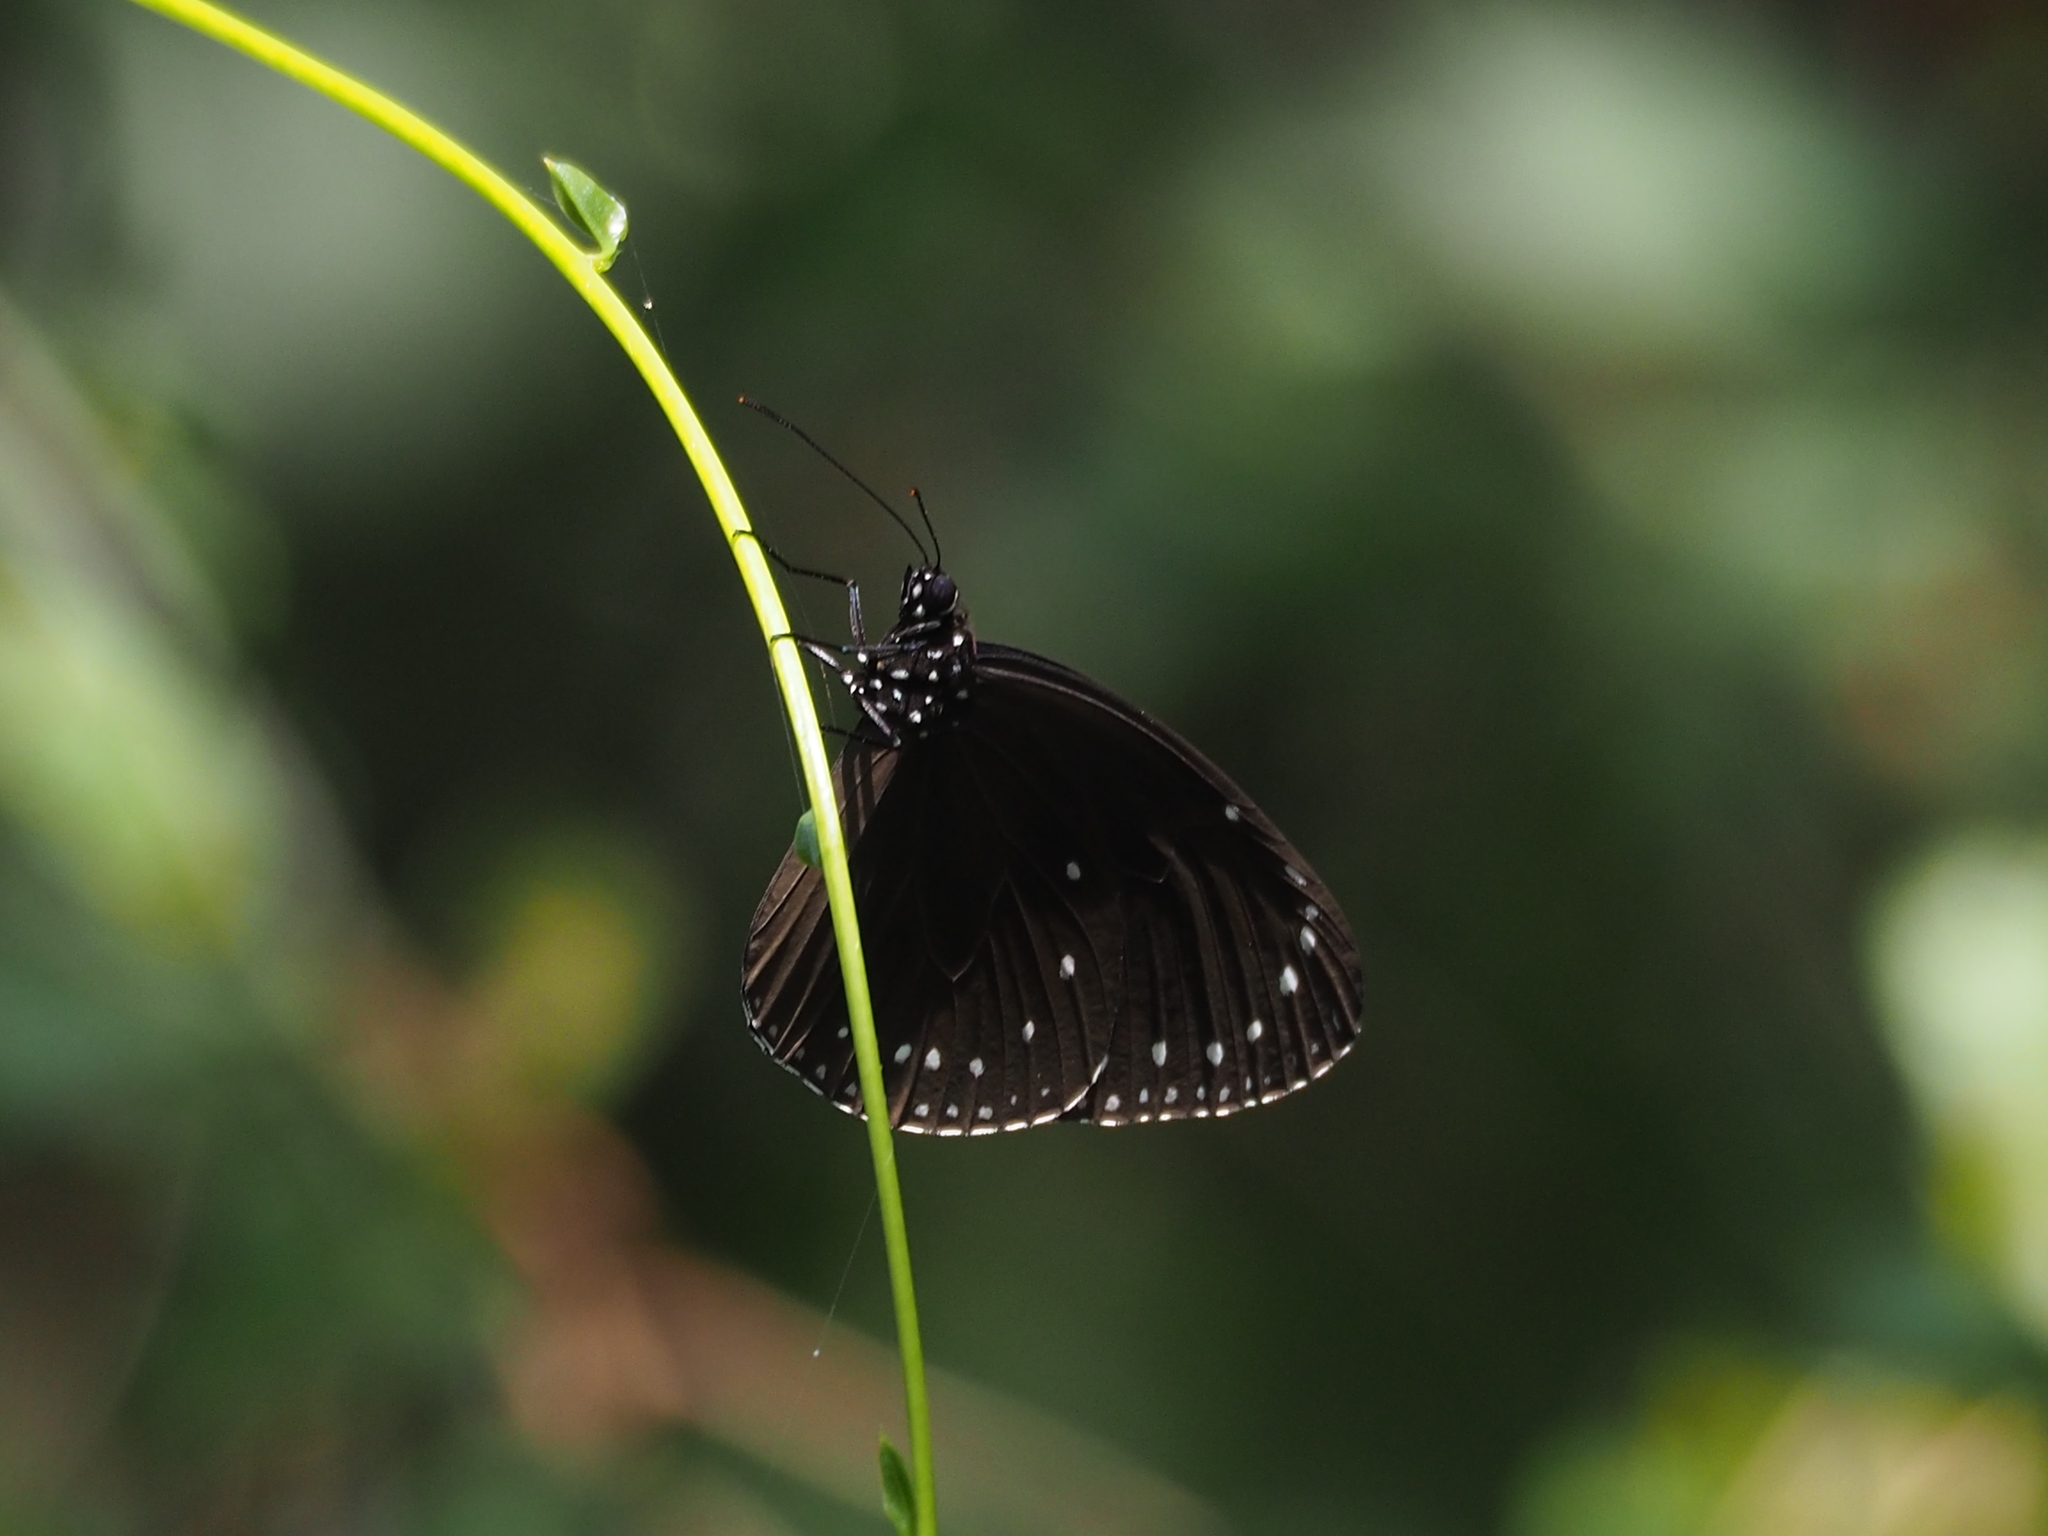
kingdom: Animalia
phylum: Arthropoda
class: Insecta
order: Lepidoptera
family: Nymphalidae
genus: Euploea
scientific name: Euploea tulliolus
